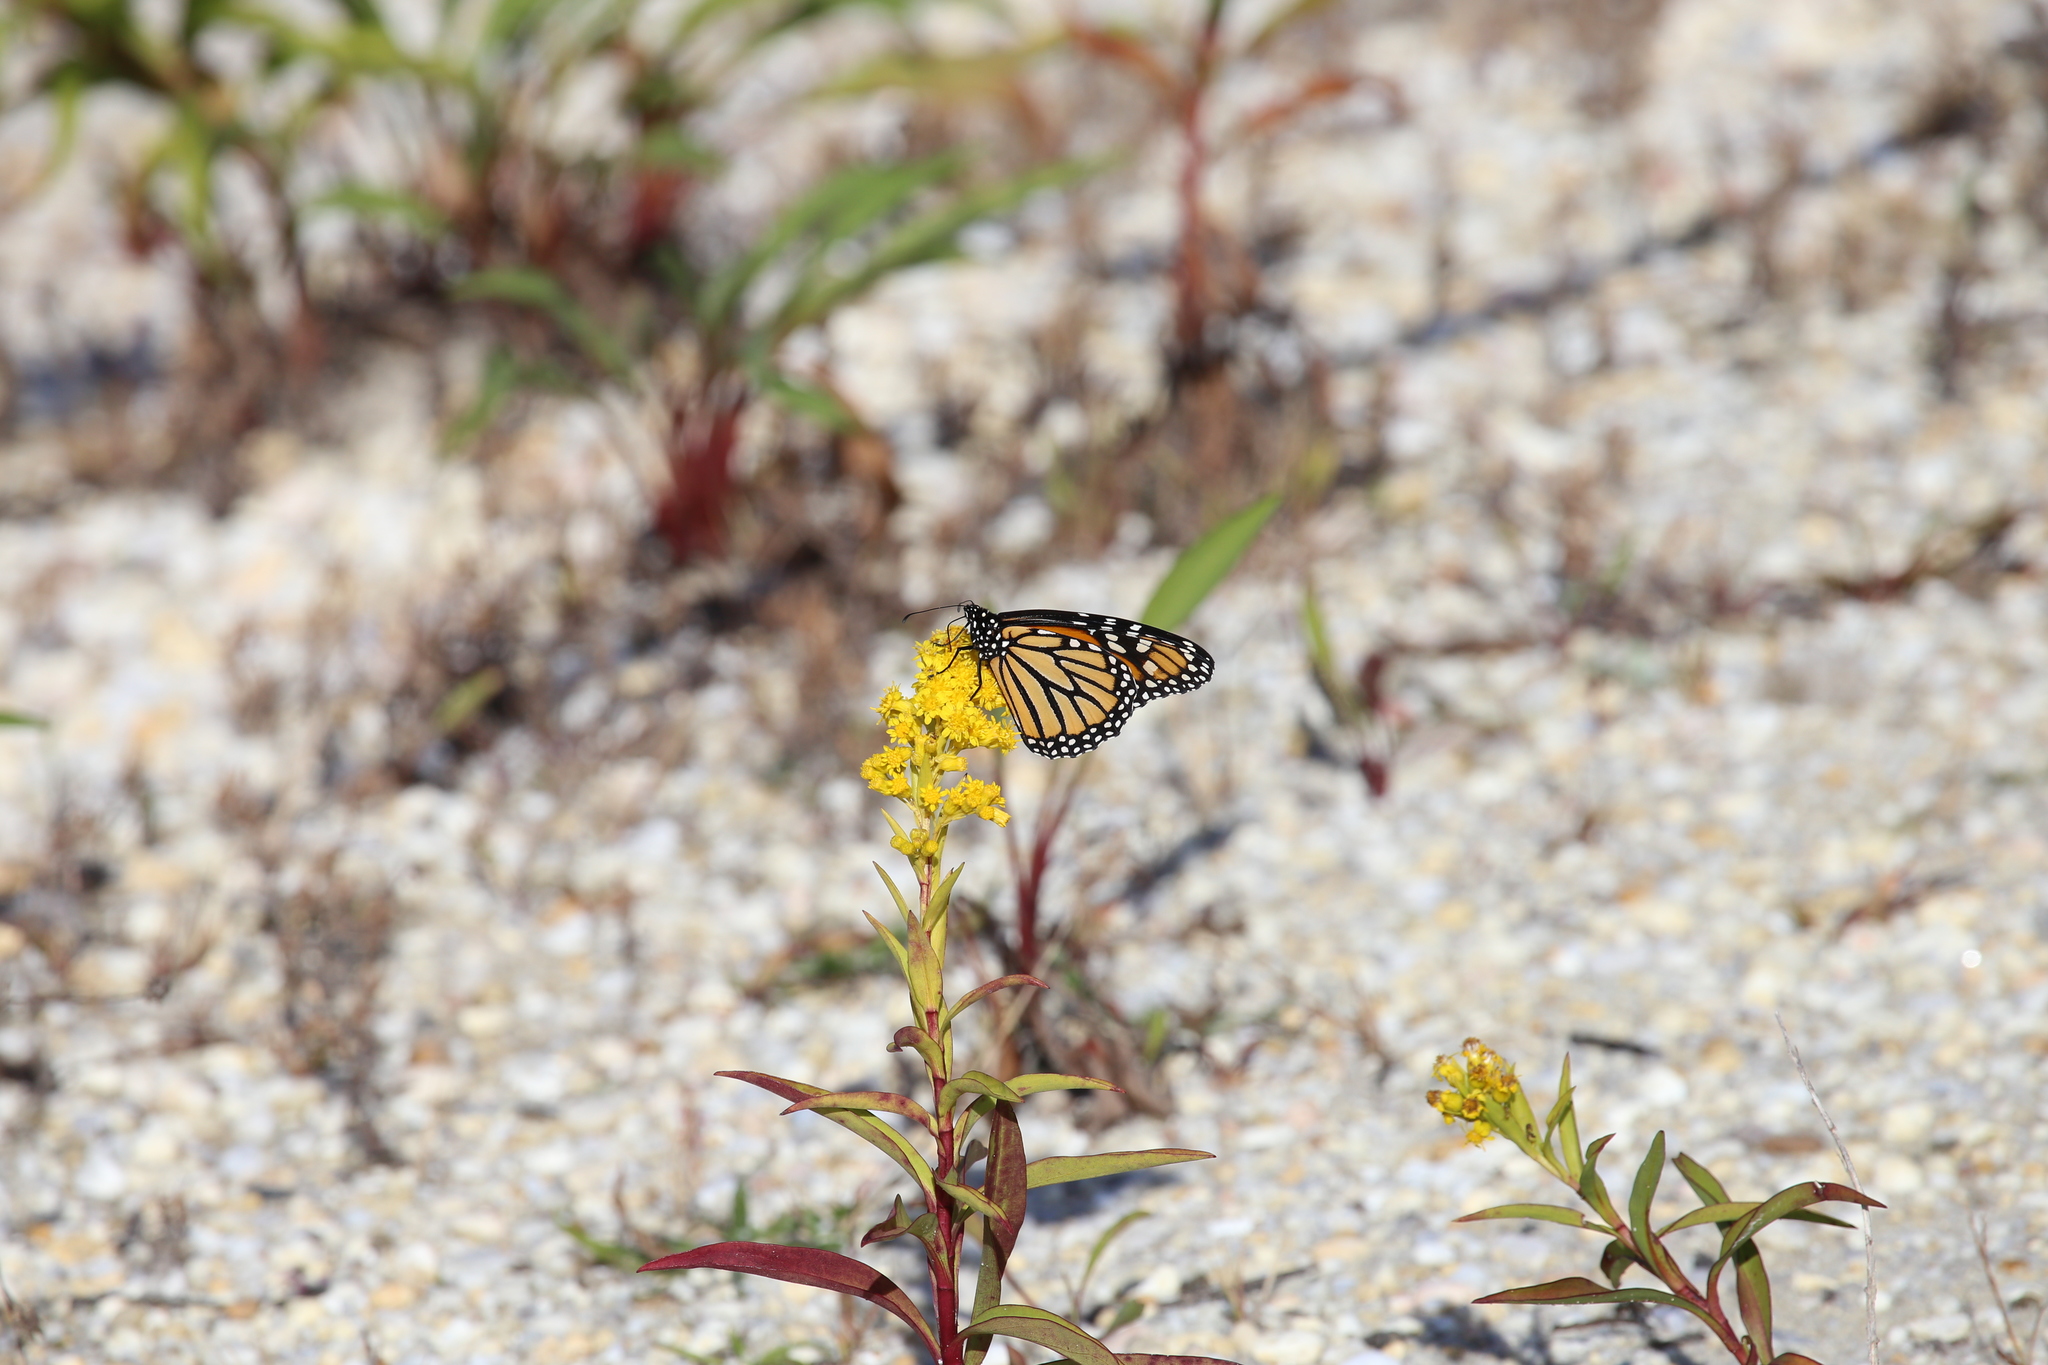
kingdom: Plantae
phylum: Tracheophyta
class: Magnoliopsida
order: Asterales
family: Asteraceae
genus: Solidago
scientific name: Solidago sempervirens
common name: Salt-marsh goldenrod
